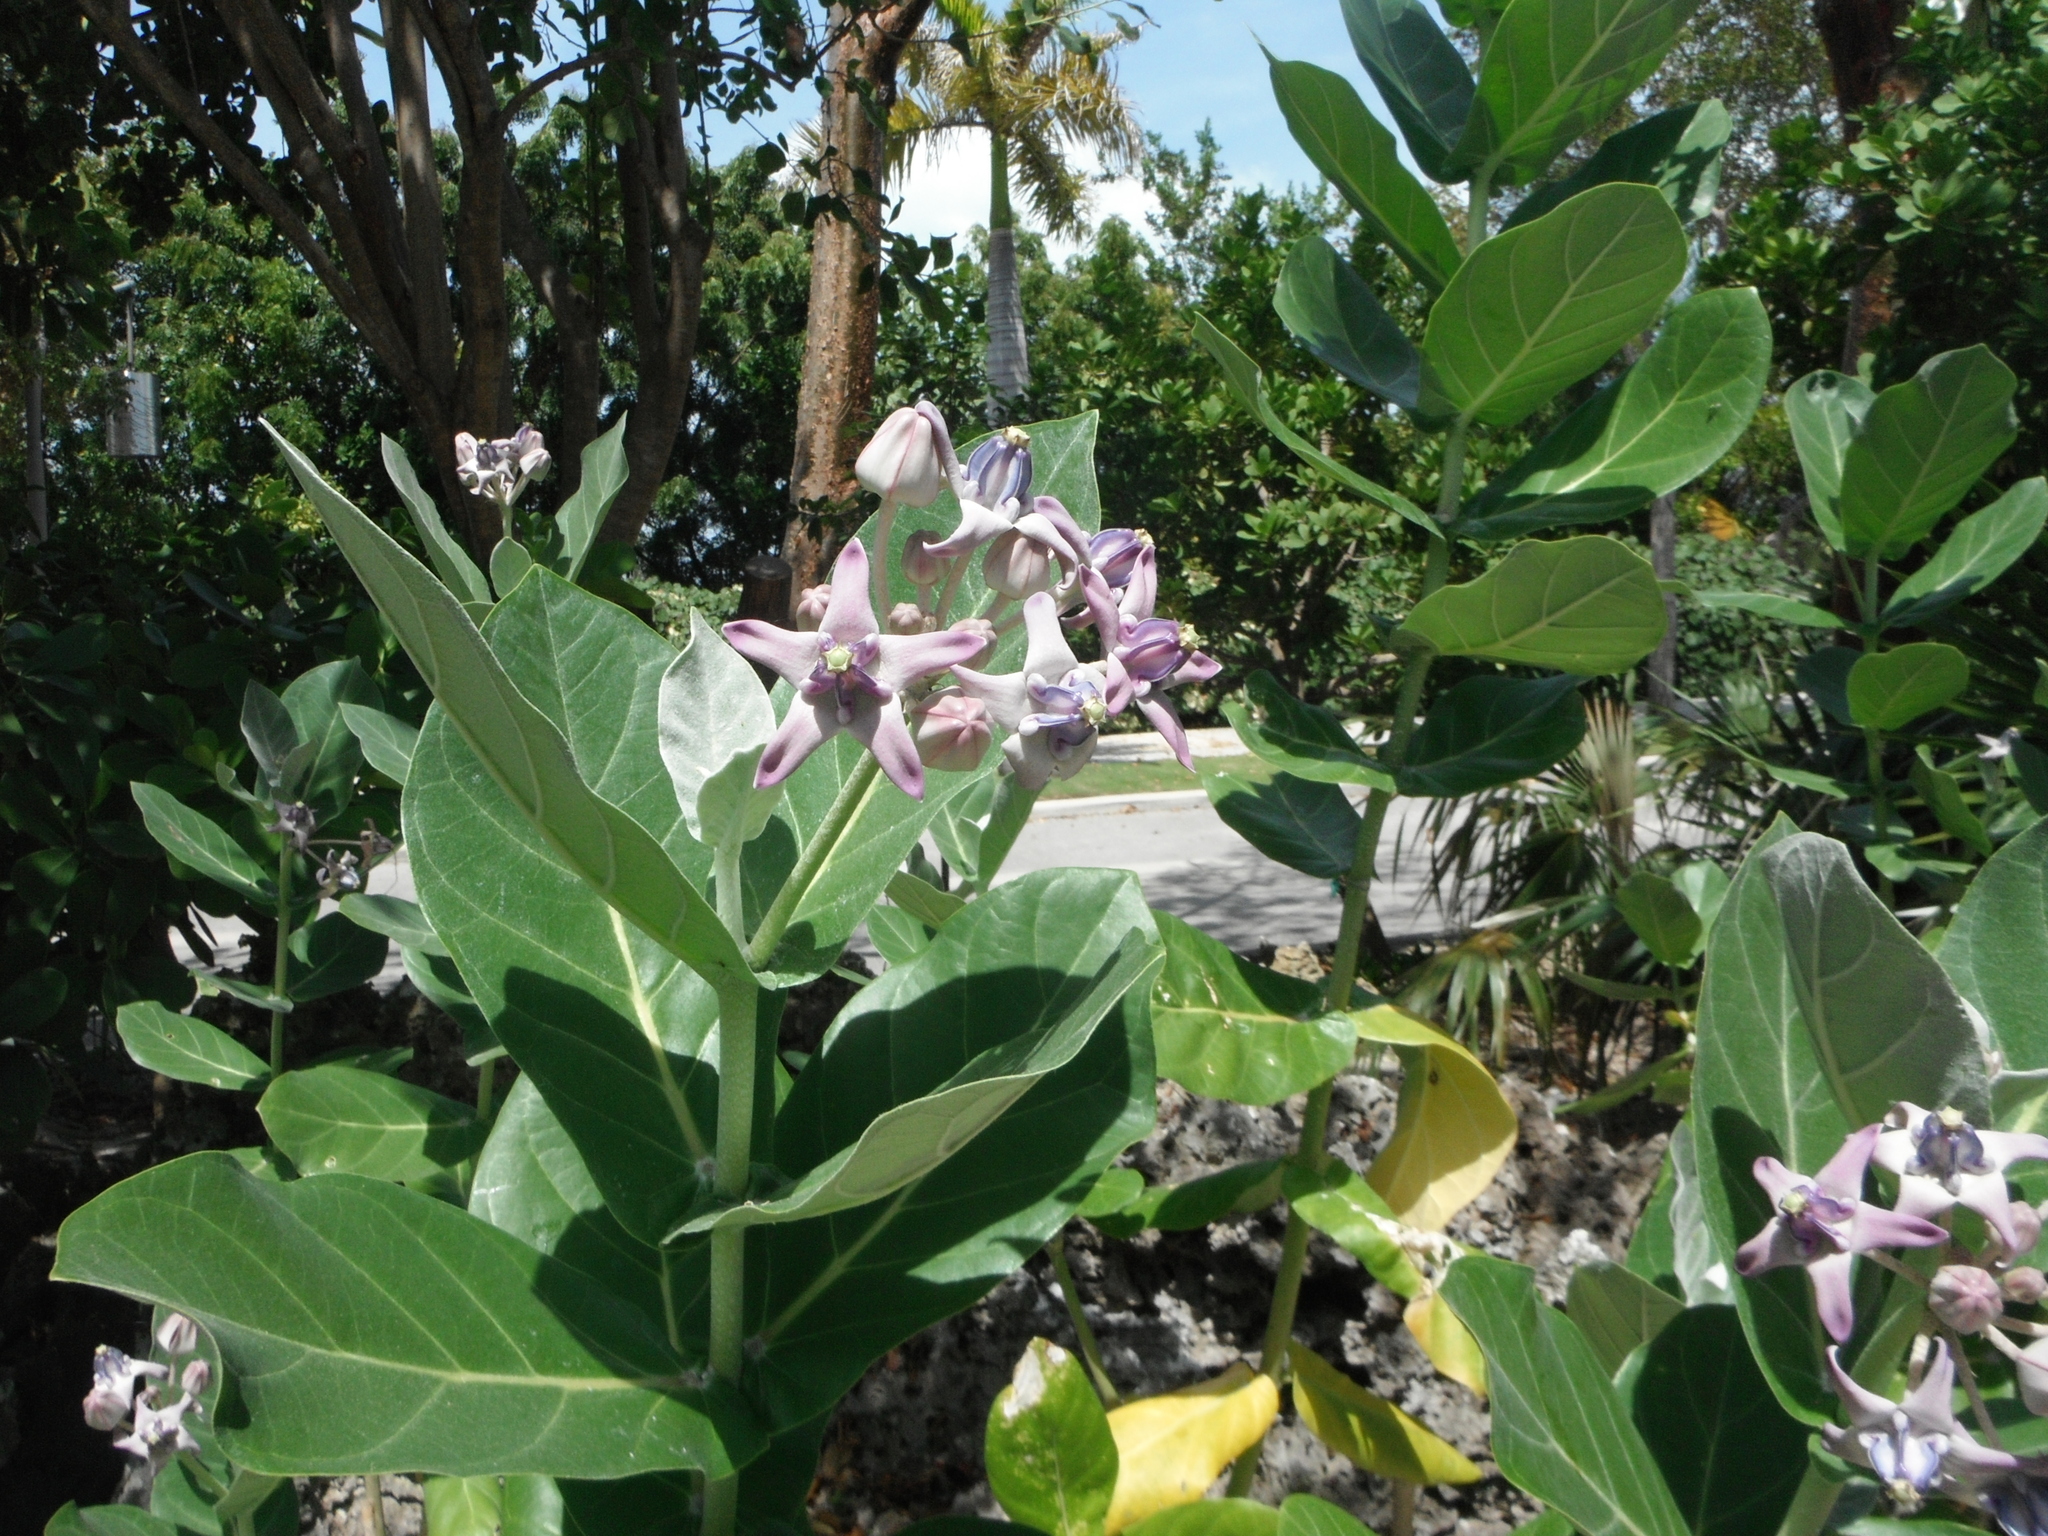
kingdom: Plantae
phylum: Tracheophyta
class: Magnoliopsida
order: Gentianales
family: Apocynaceae
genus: Calotropis
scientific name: Calotropis gigantea
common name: Crown flower
